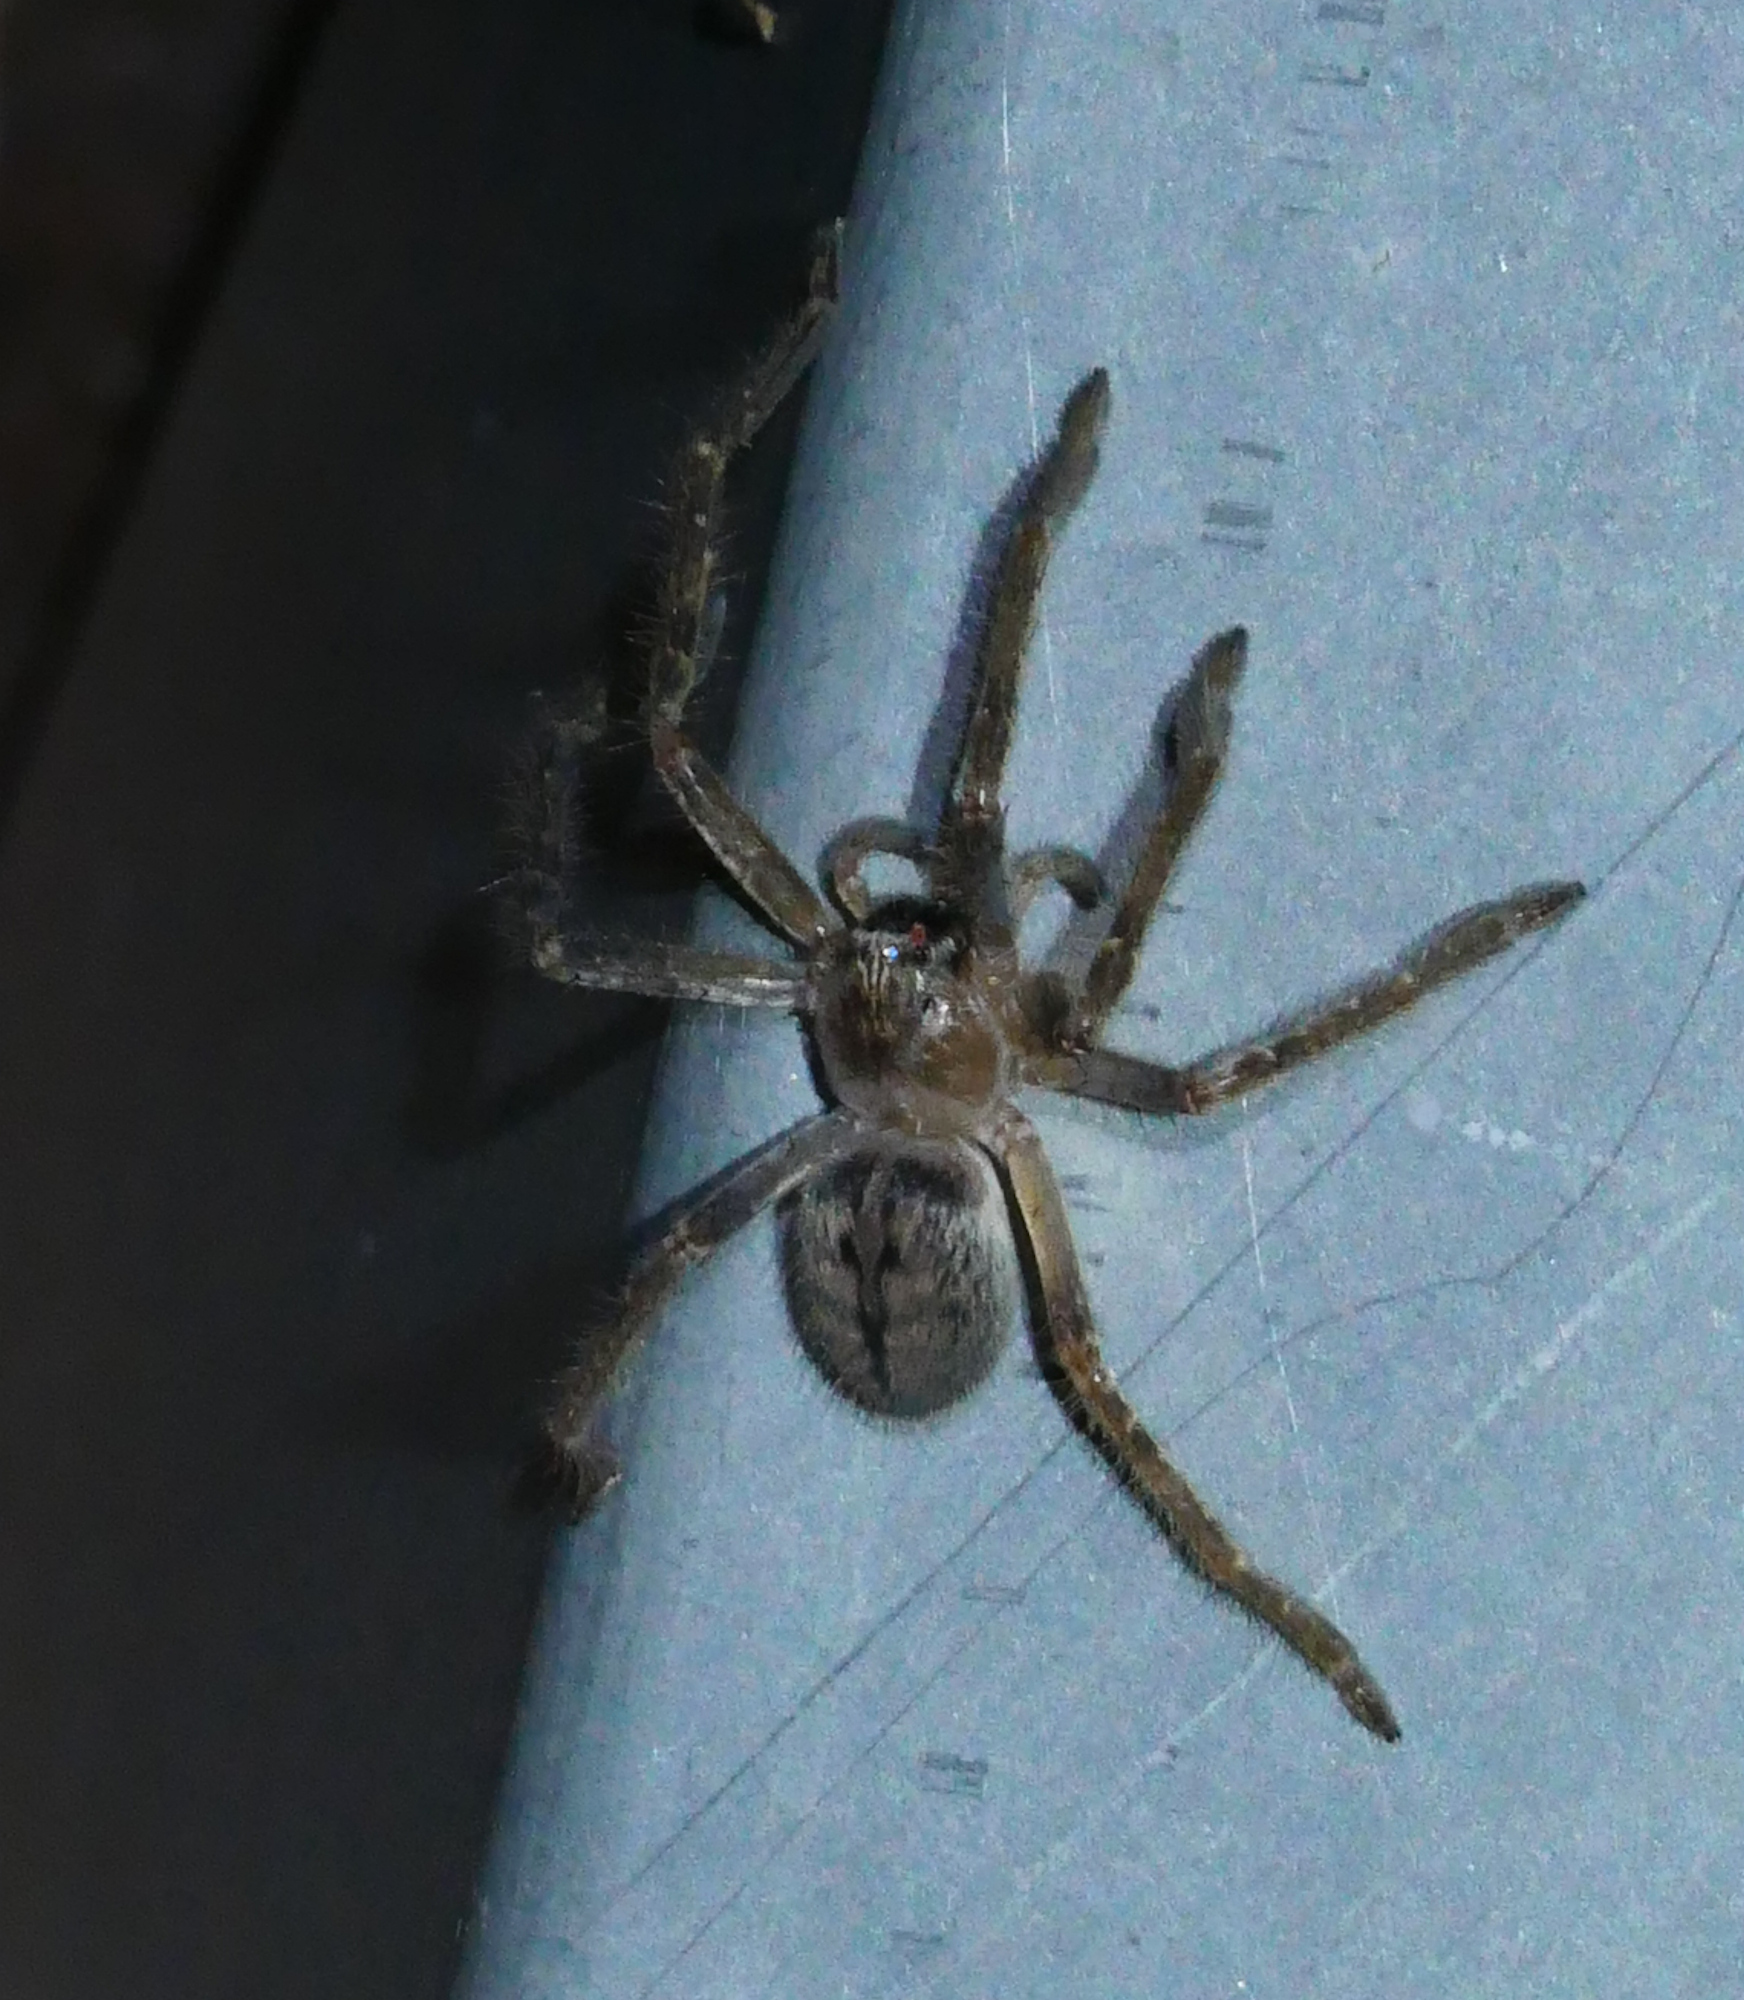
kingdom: Animalia
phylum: Arthropoda
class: Arachnida
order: Araneae
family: Sparassidae
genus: Olios
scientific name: Olios giganteus
